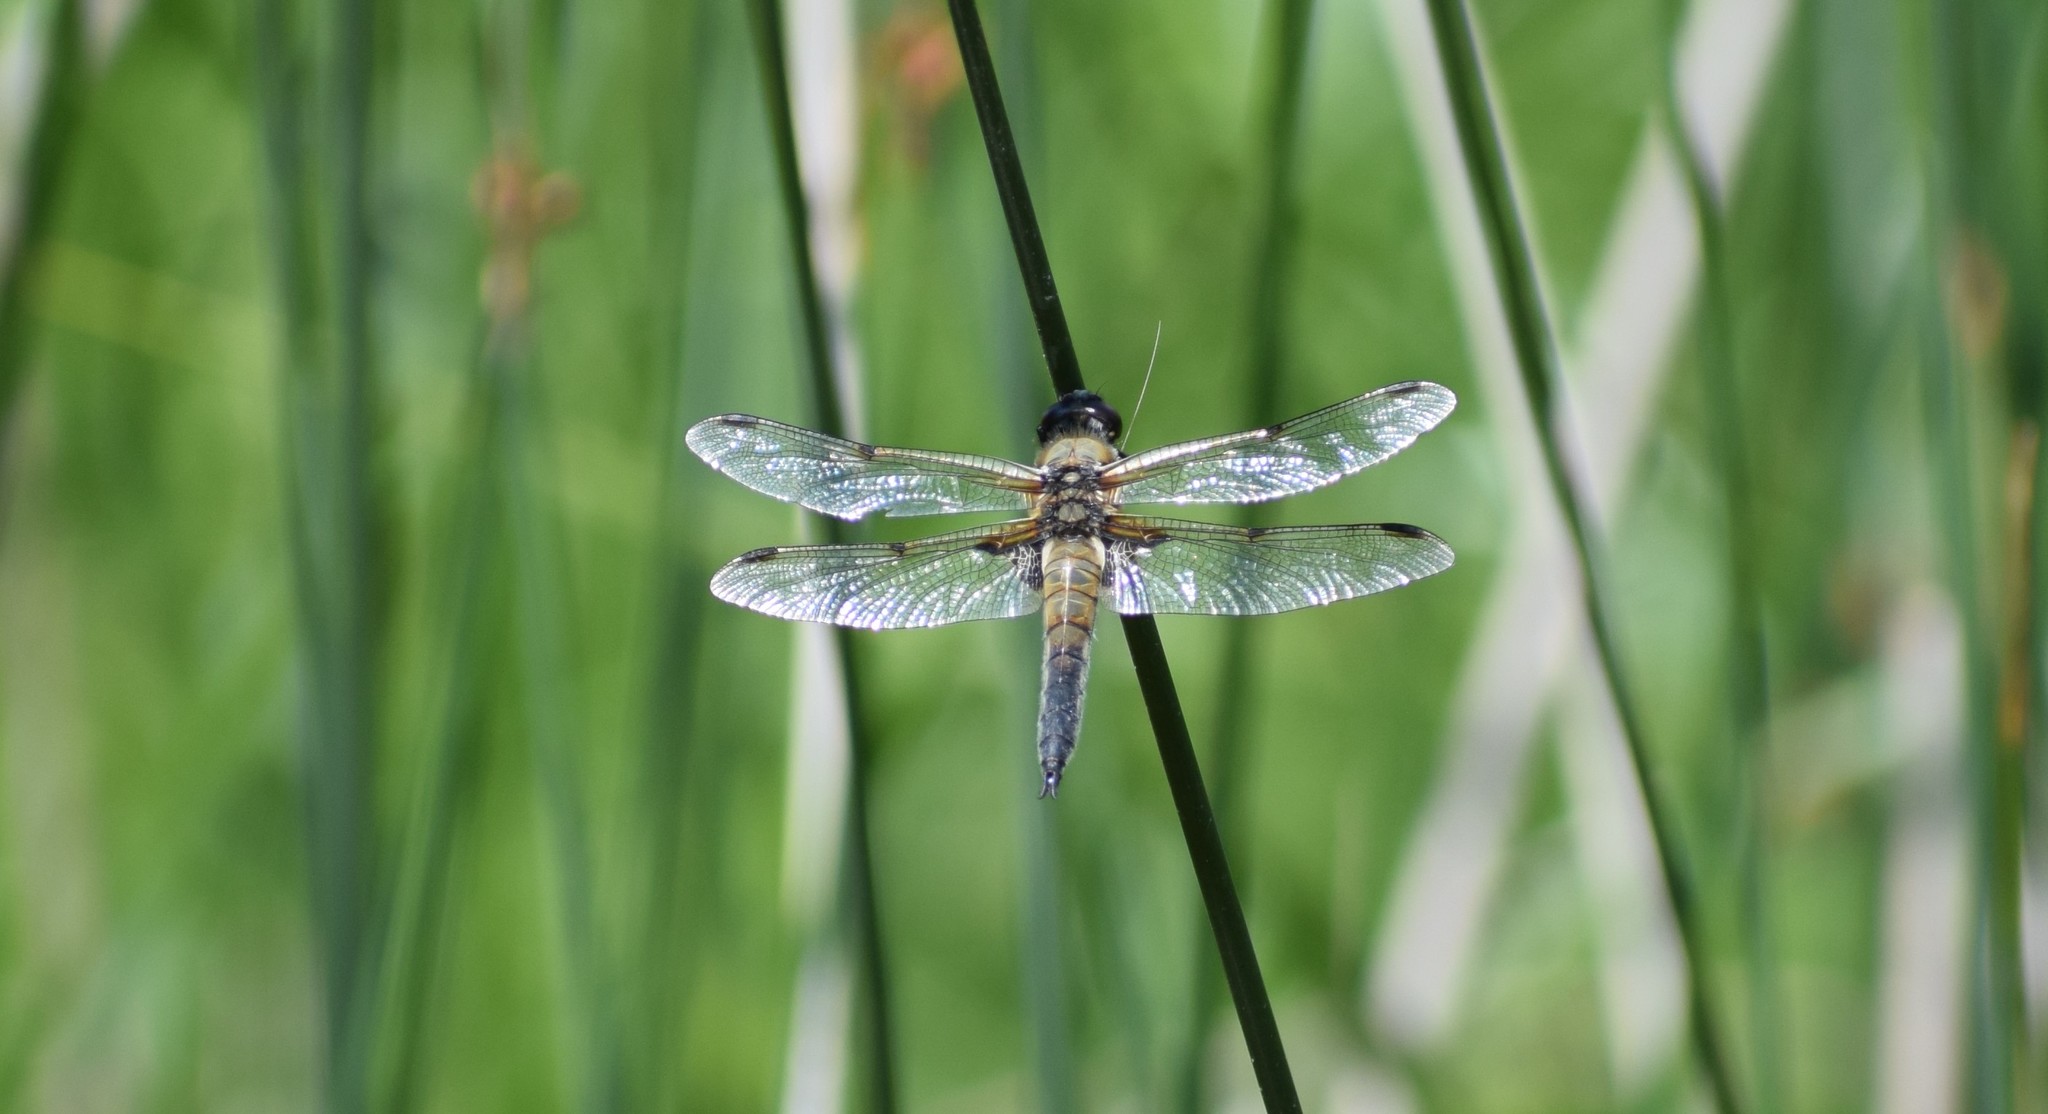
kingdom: Animalia
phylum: Arthropoda
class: Insecta
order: Odonata
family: Libellulidae
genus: Libellula
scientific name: Libellula quadrimaculata
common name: Four-spotted chaser
